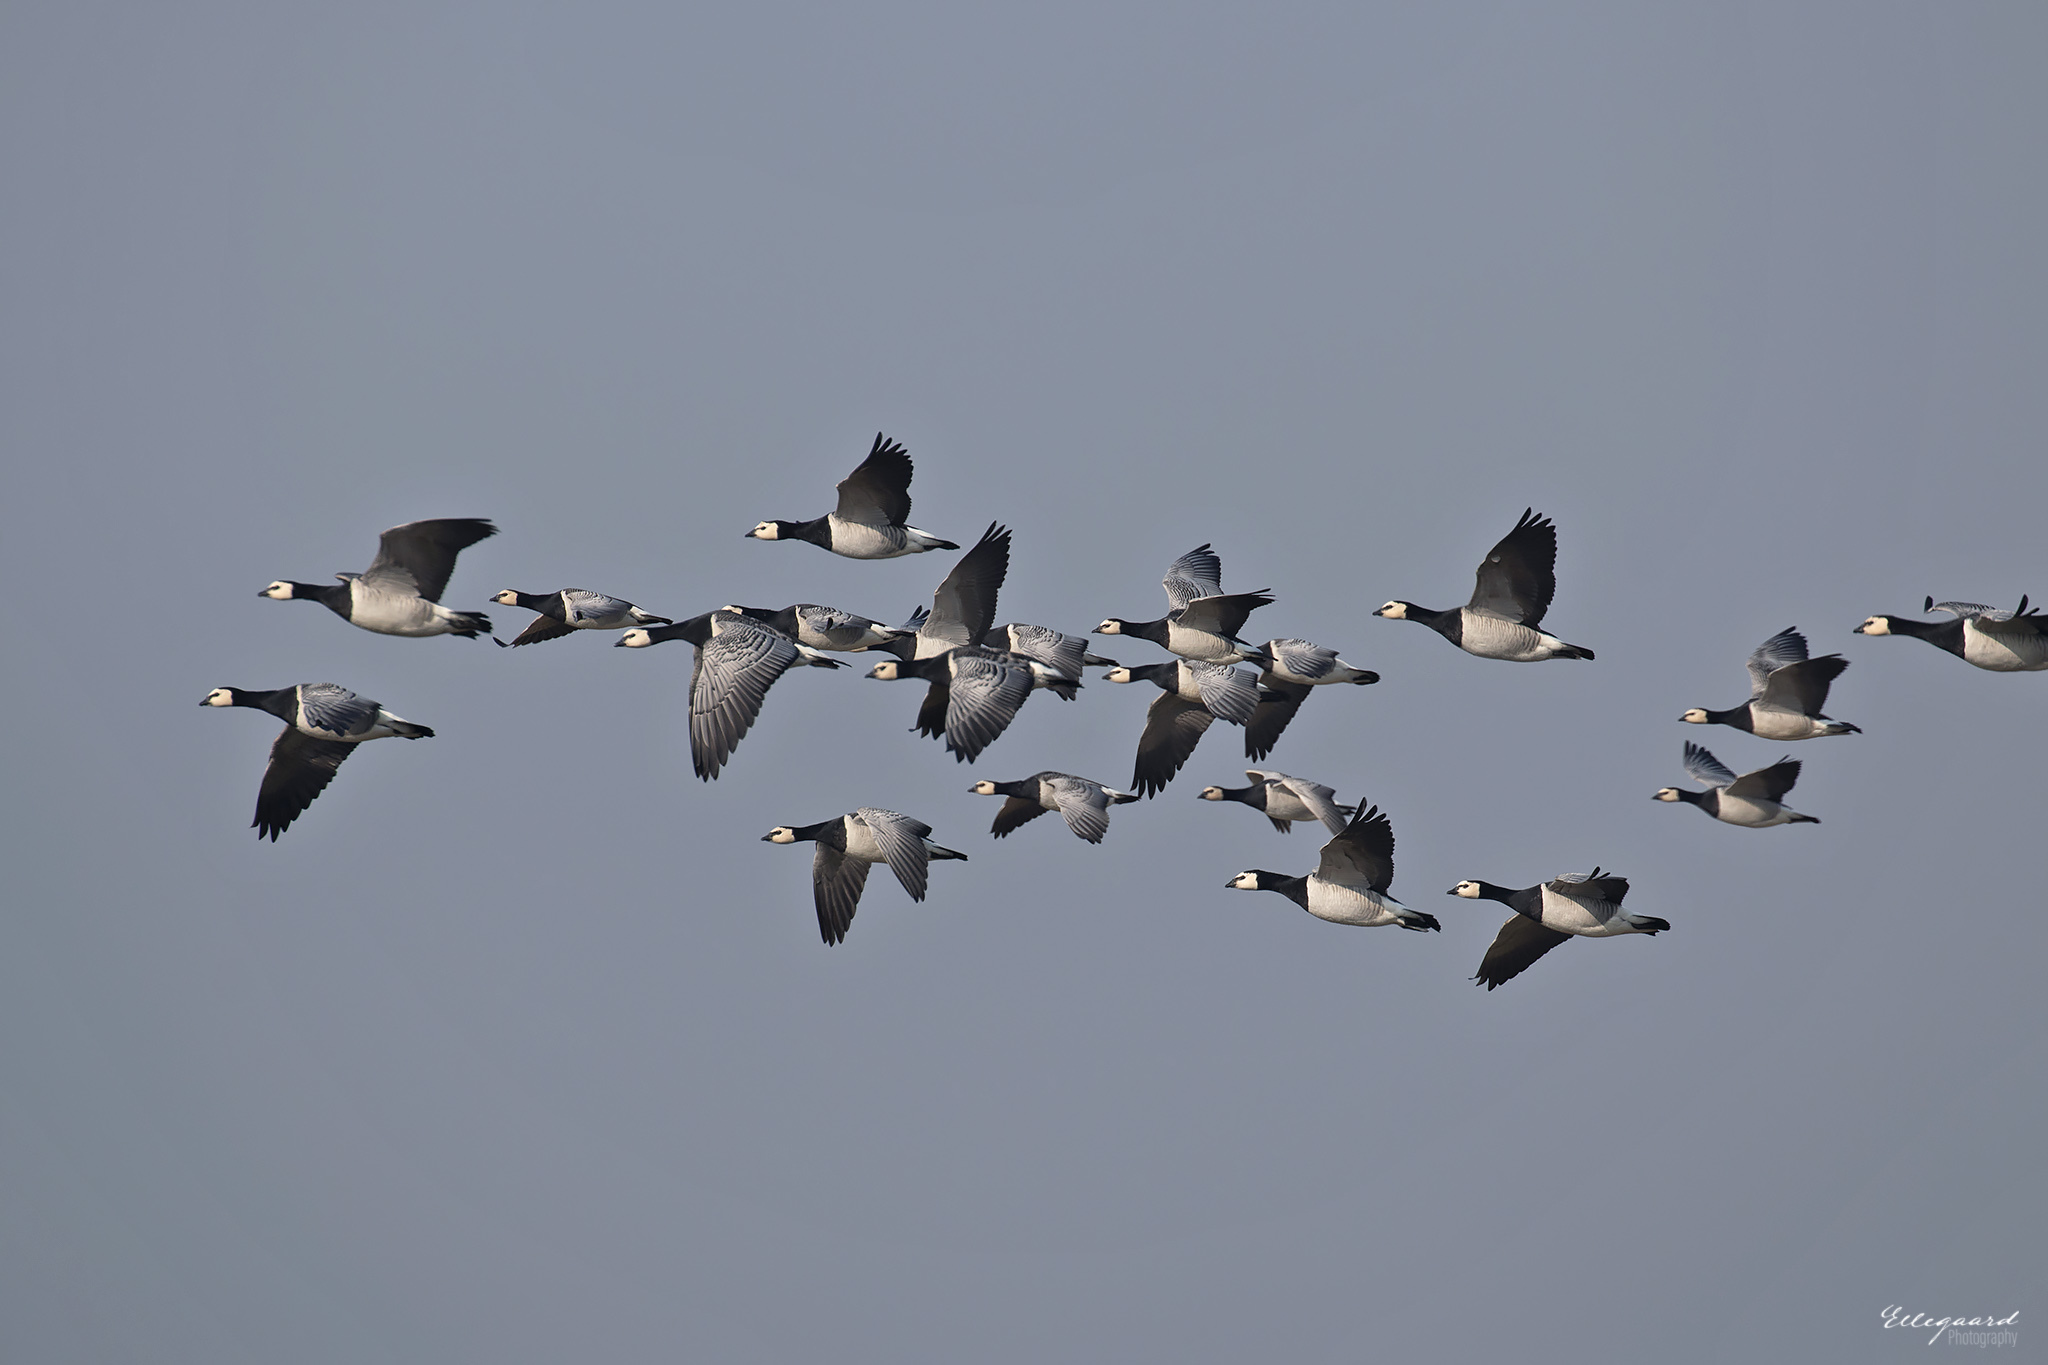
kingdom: Animalia
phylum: Chordata
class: Aves
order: Anseriformes
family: Anatidae
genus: Branta
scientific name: Branta leucopsis
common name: Barnacle goose
